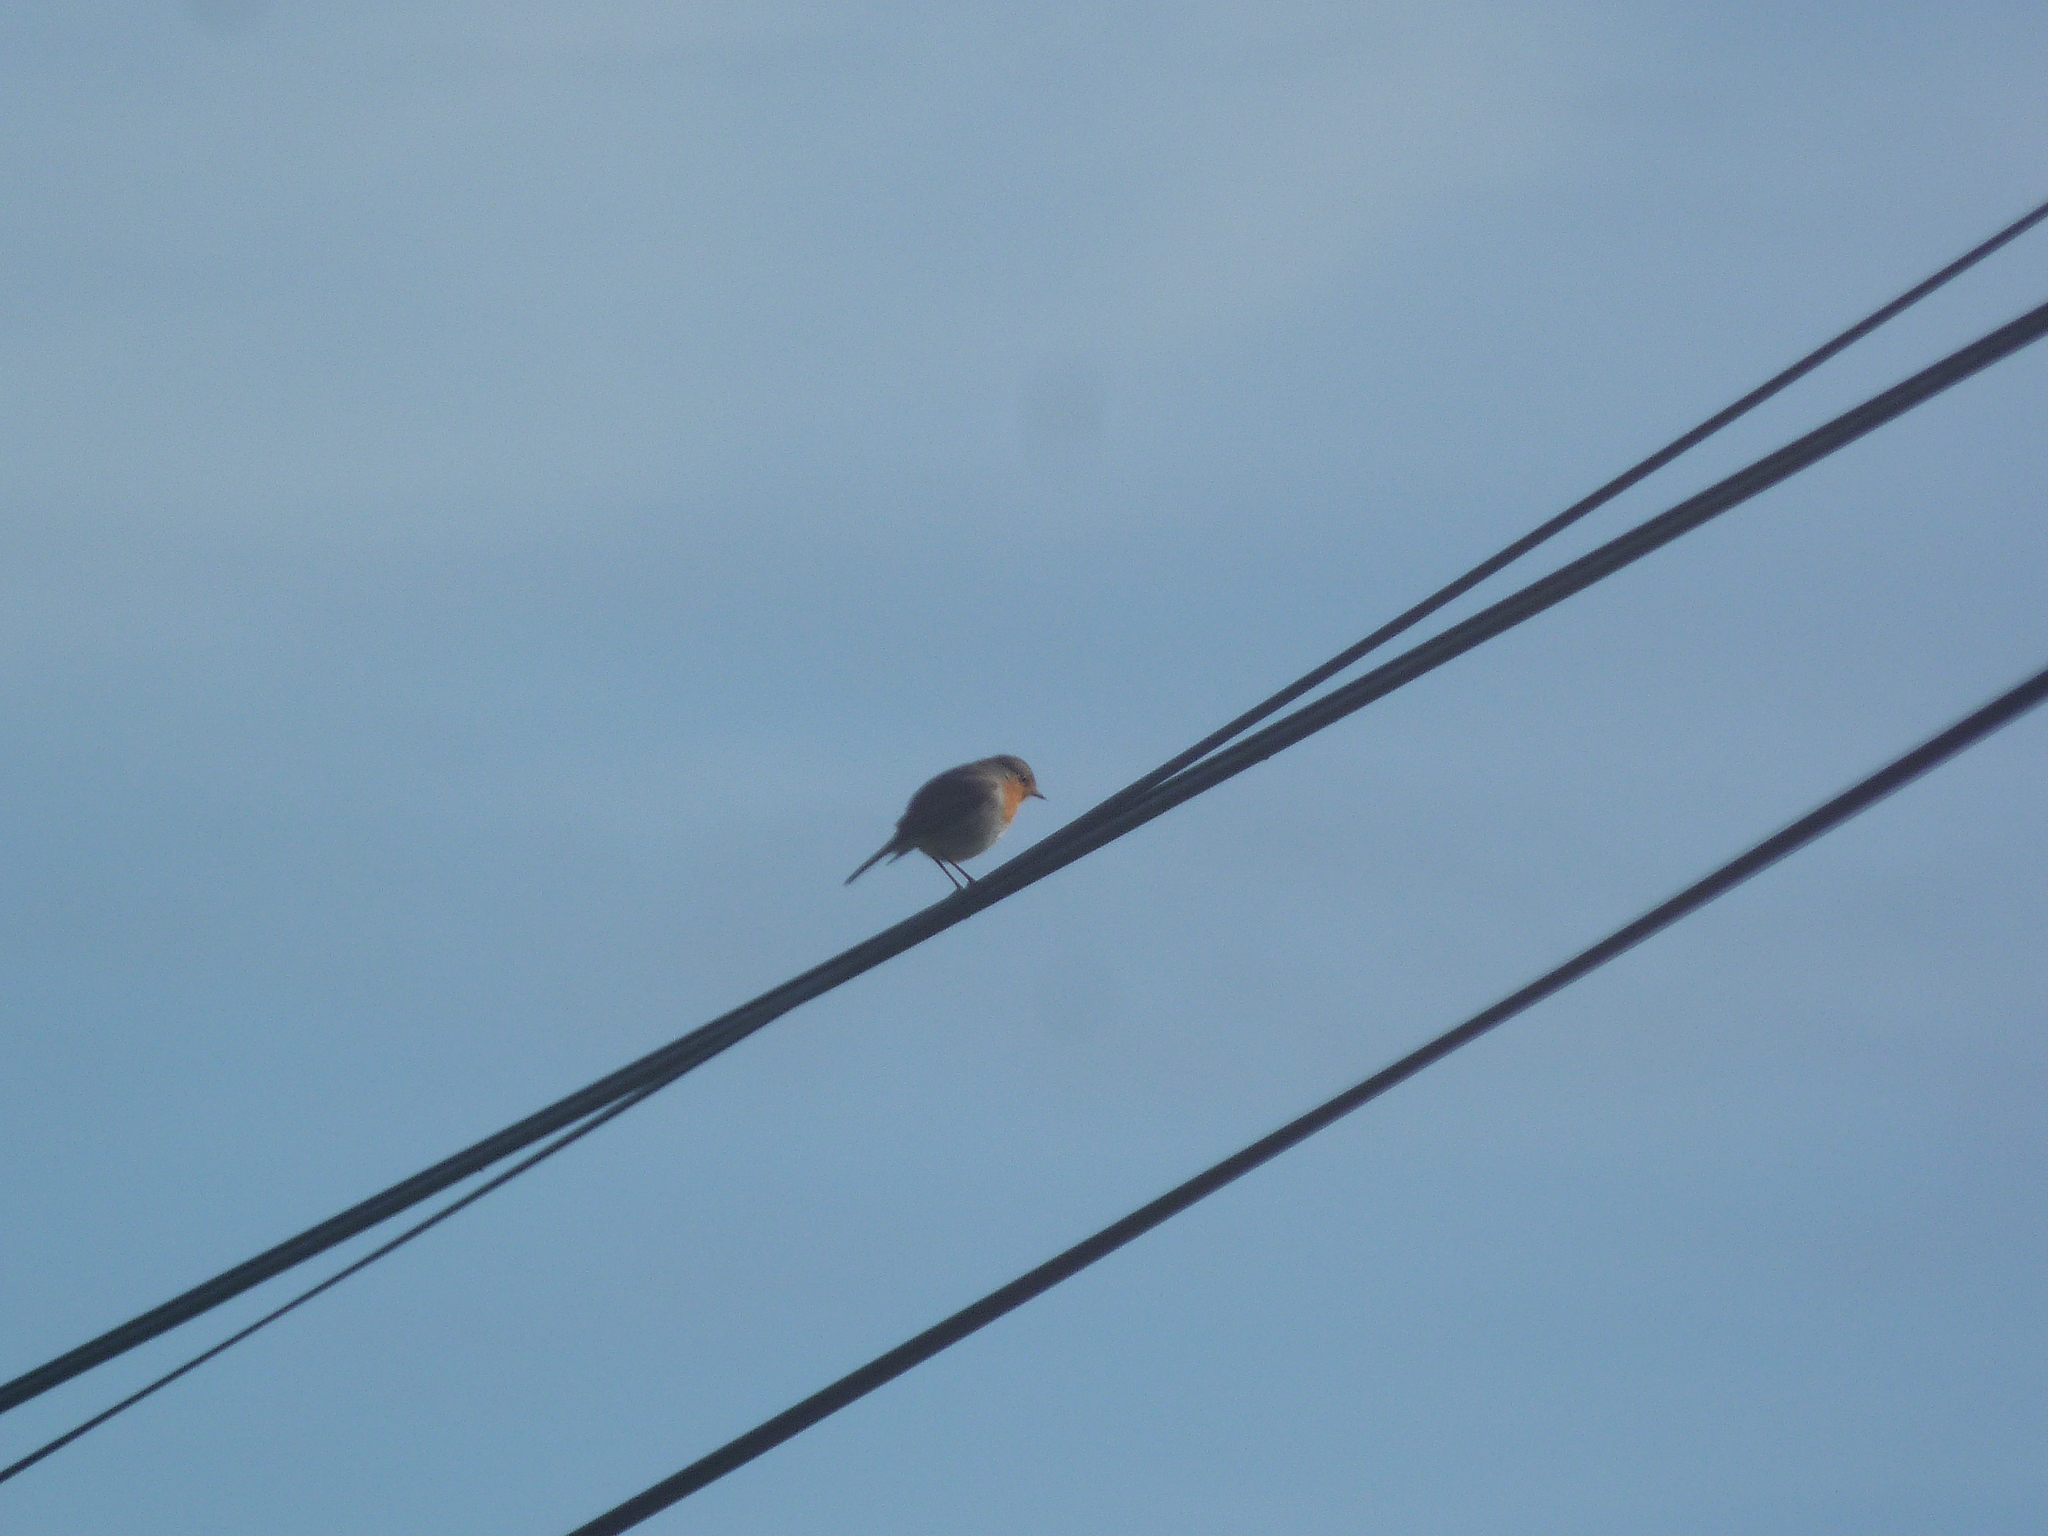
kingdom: Animalia
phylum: Chordata
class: Aves
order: Passeriformes
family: Muscicapidae
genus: Erithacus
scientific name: Erithacus rubecula
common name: European robin
